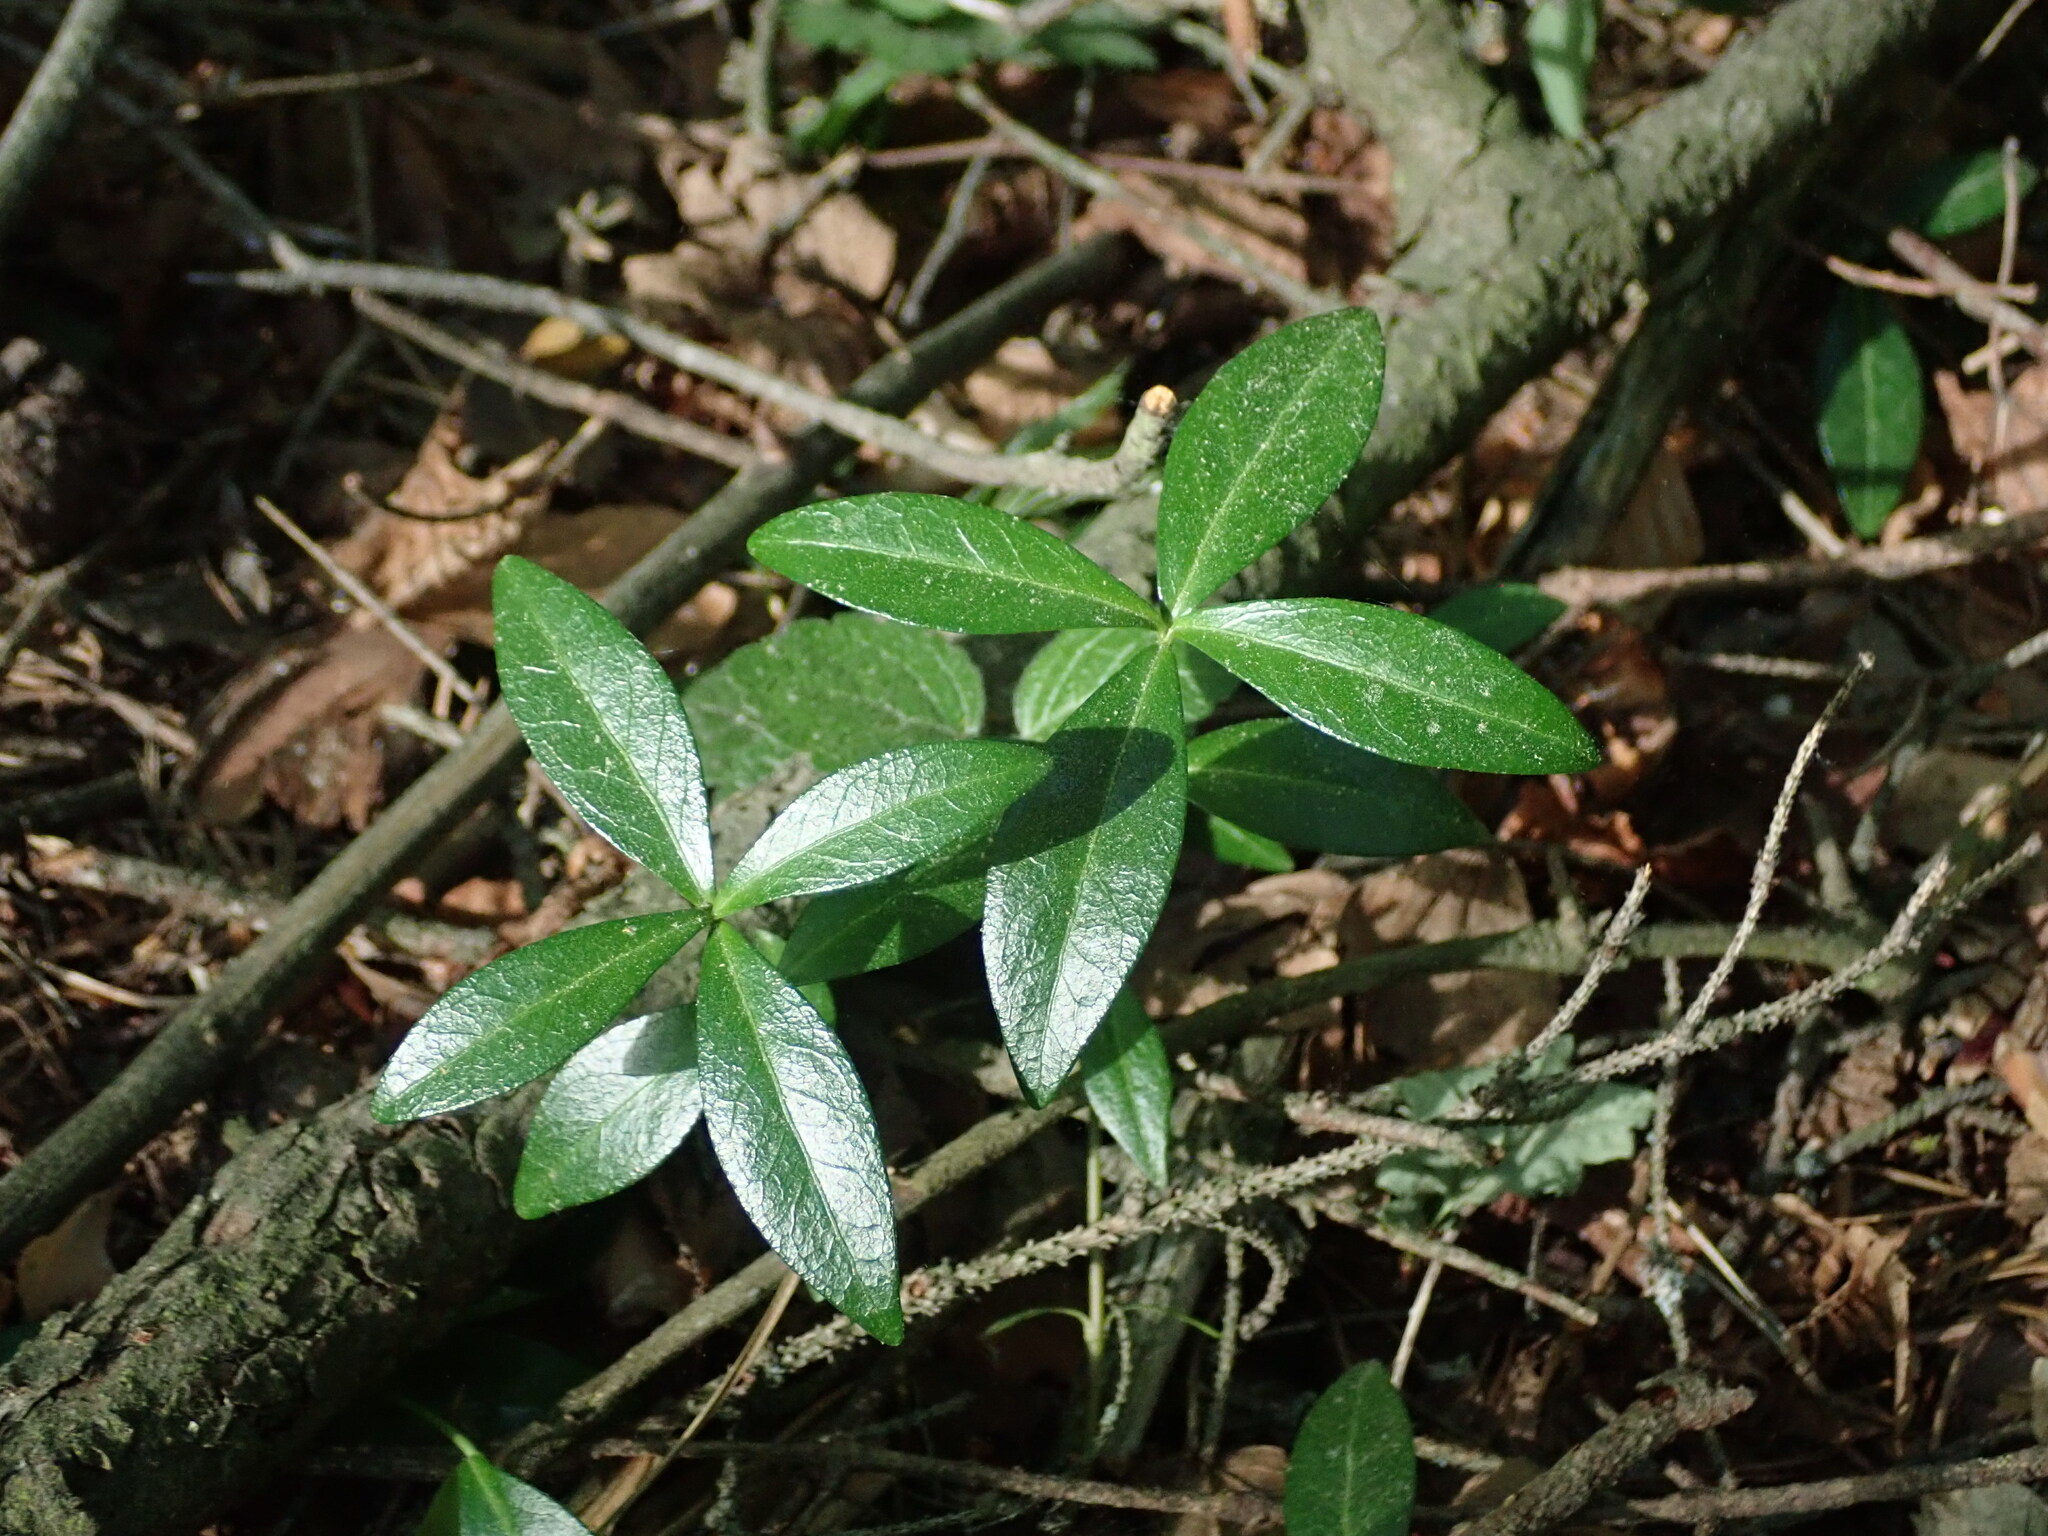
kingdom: Plantae
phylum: Tracheophyta
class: Magnoliopsida
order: Gentianales
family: Apocynaceae
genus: Vinca
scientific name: Vinca minor
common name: Lesser periwinkle
